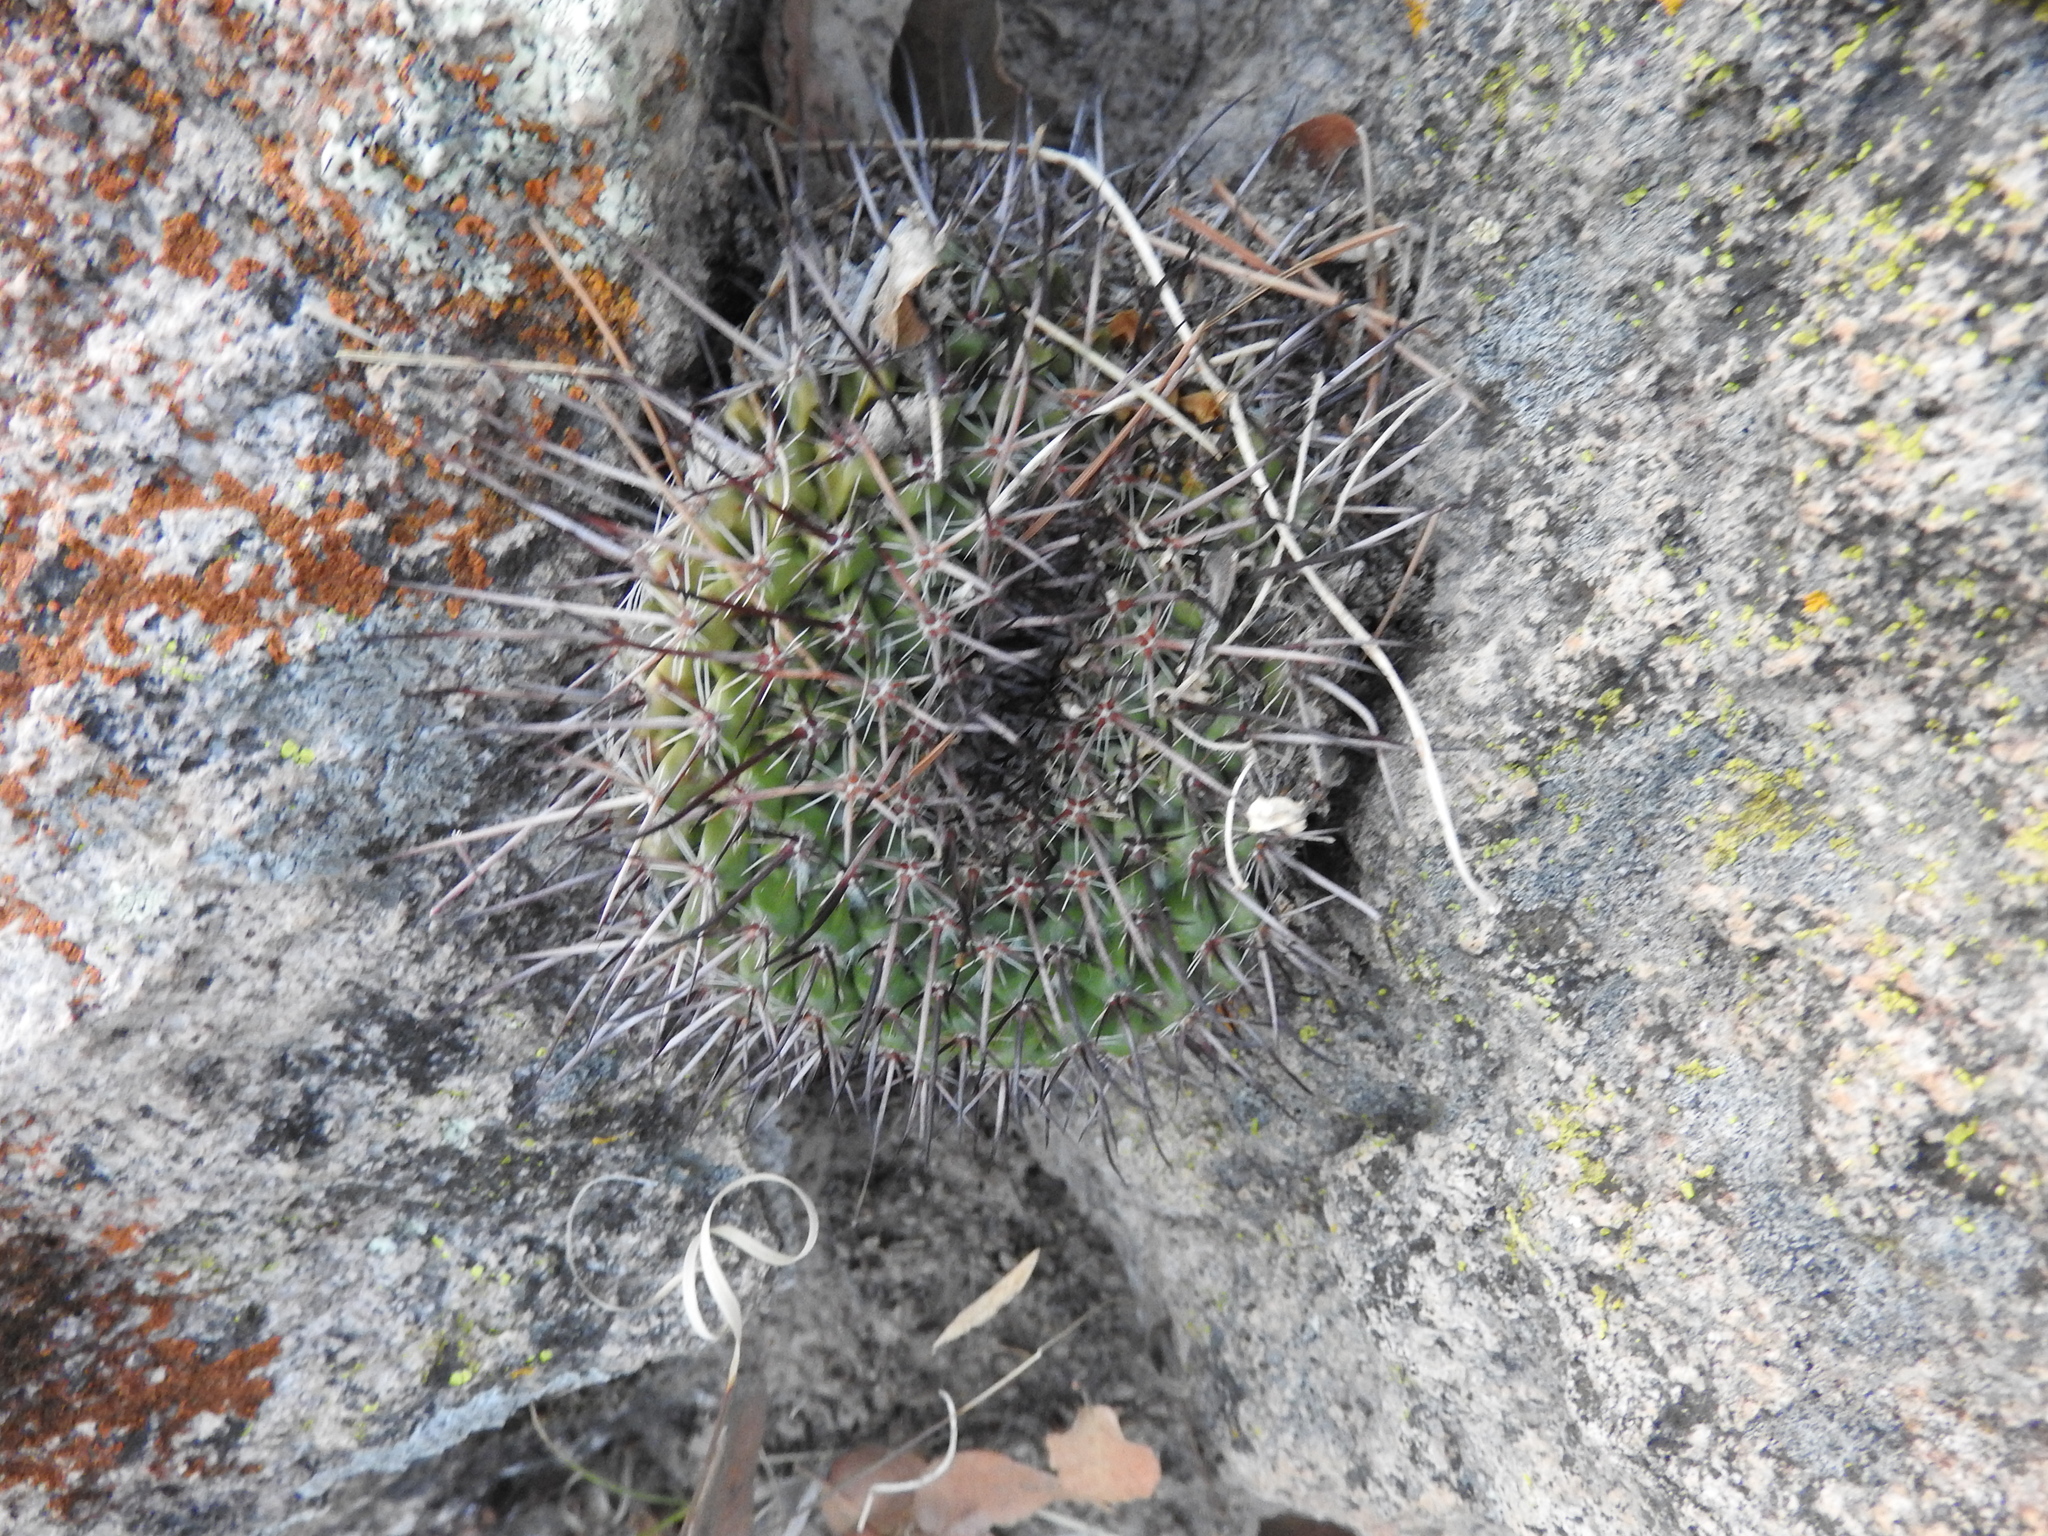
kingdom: Plantae
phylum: Tracheophyta
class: Magnoliopsida
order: Caryophyllales
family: Cactaceae
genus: Mammillaria
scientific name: Mammillaria gigantea
